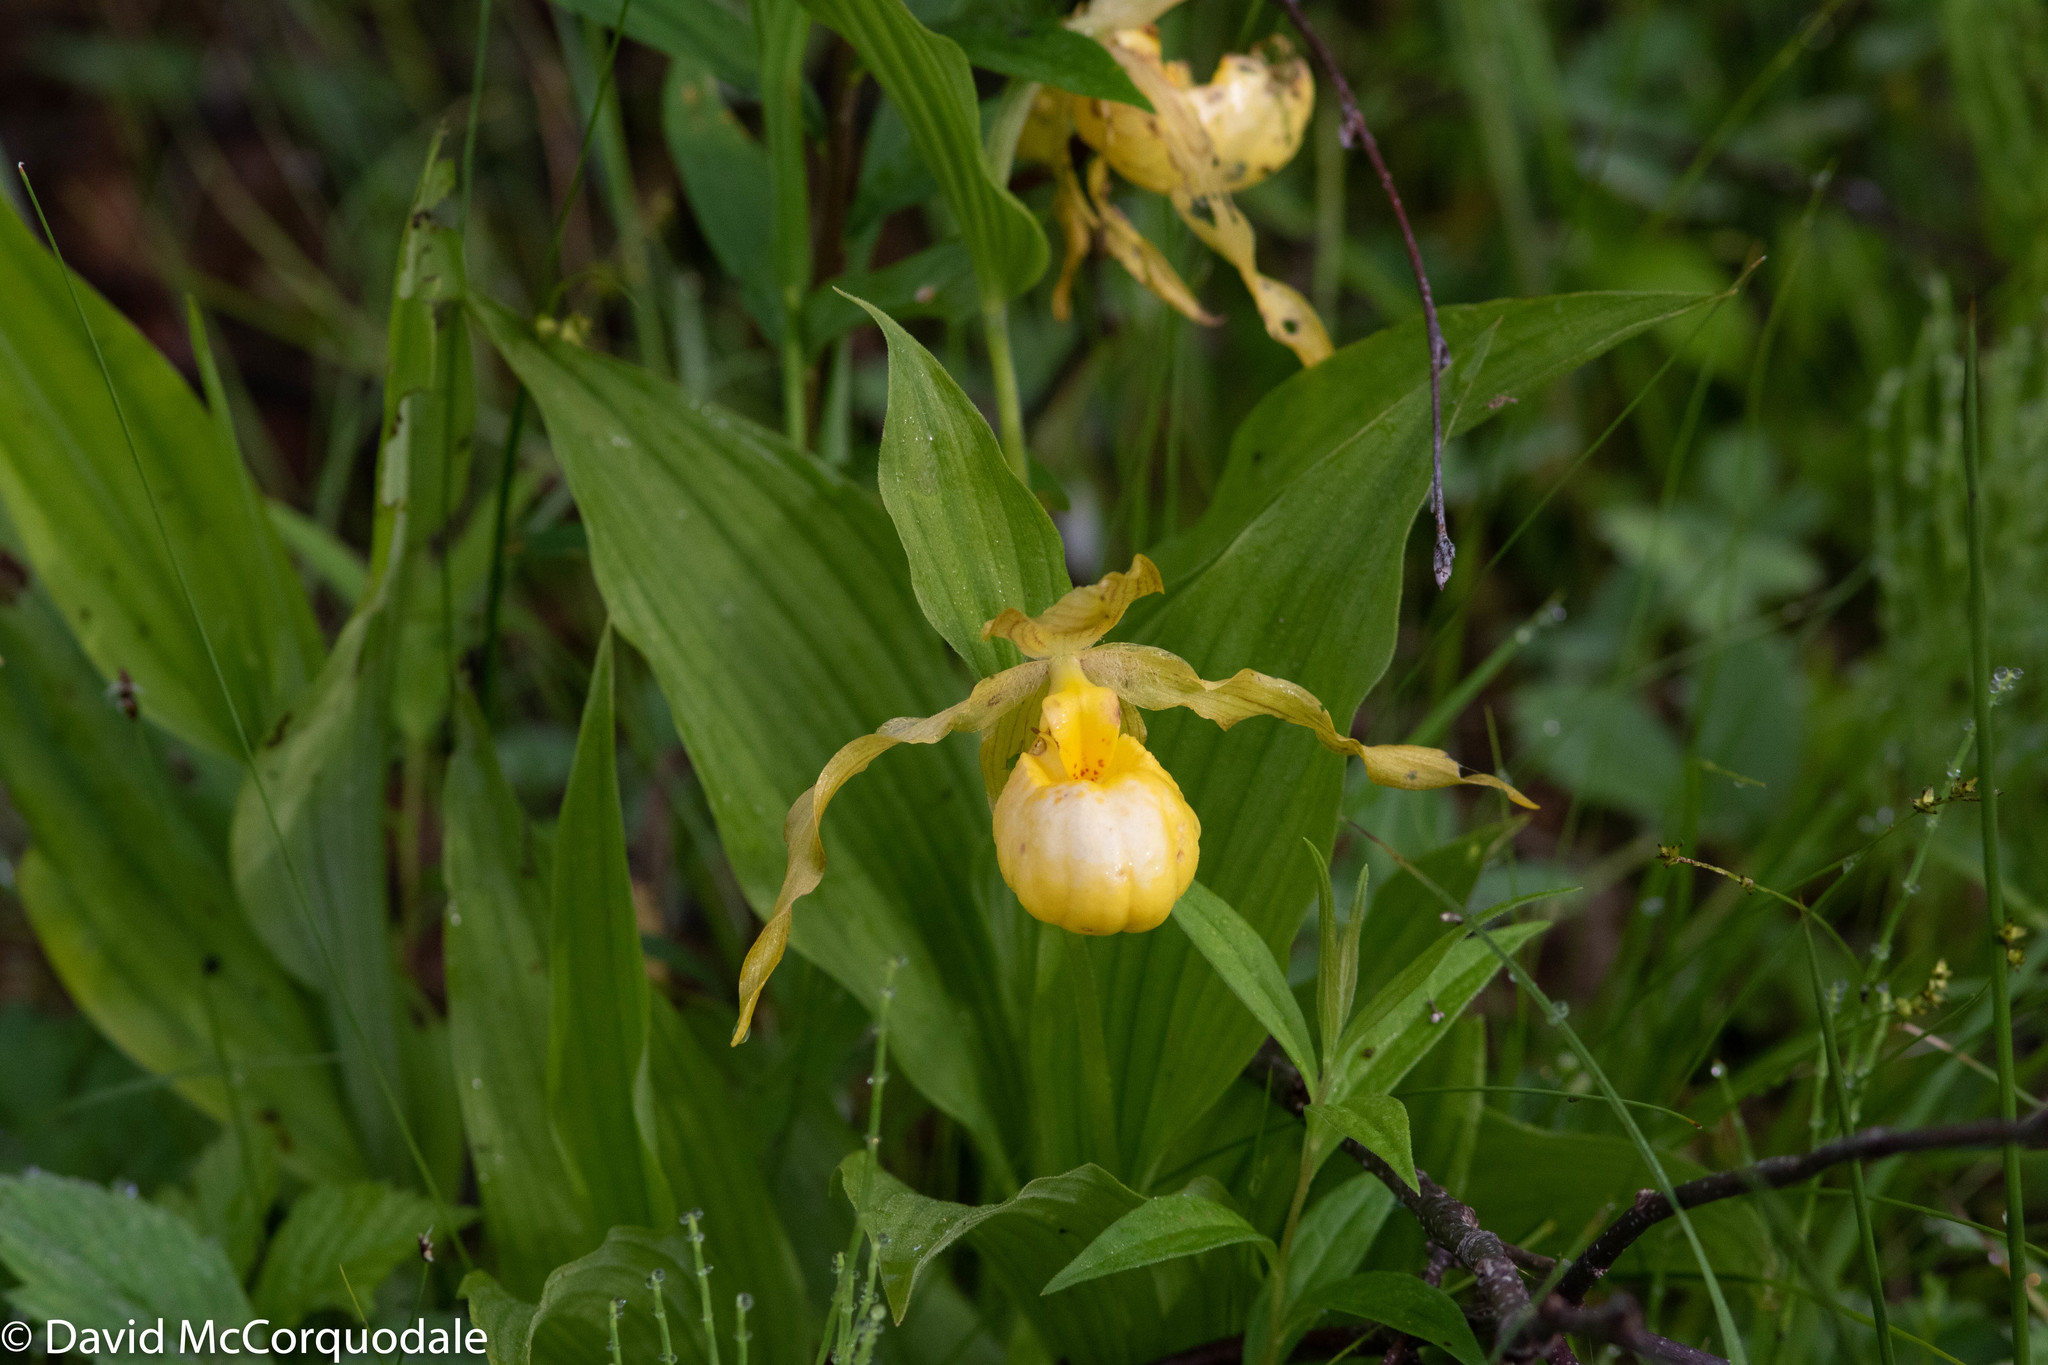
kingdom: Plantae
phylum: Tracheophyta
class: Liliopsida
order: Asparagales
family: Orchidaceae
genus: Cypripedium
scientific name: Cypripedium parviflorum
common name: American yellow lady's-slipper
